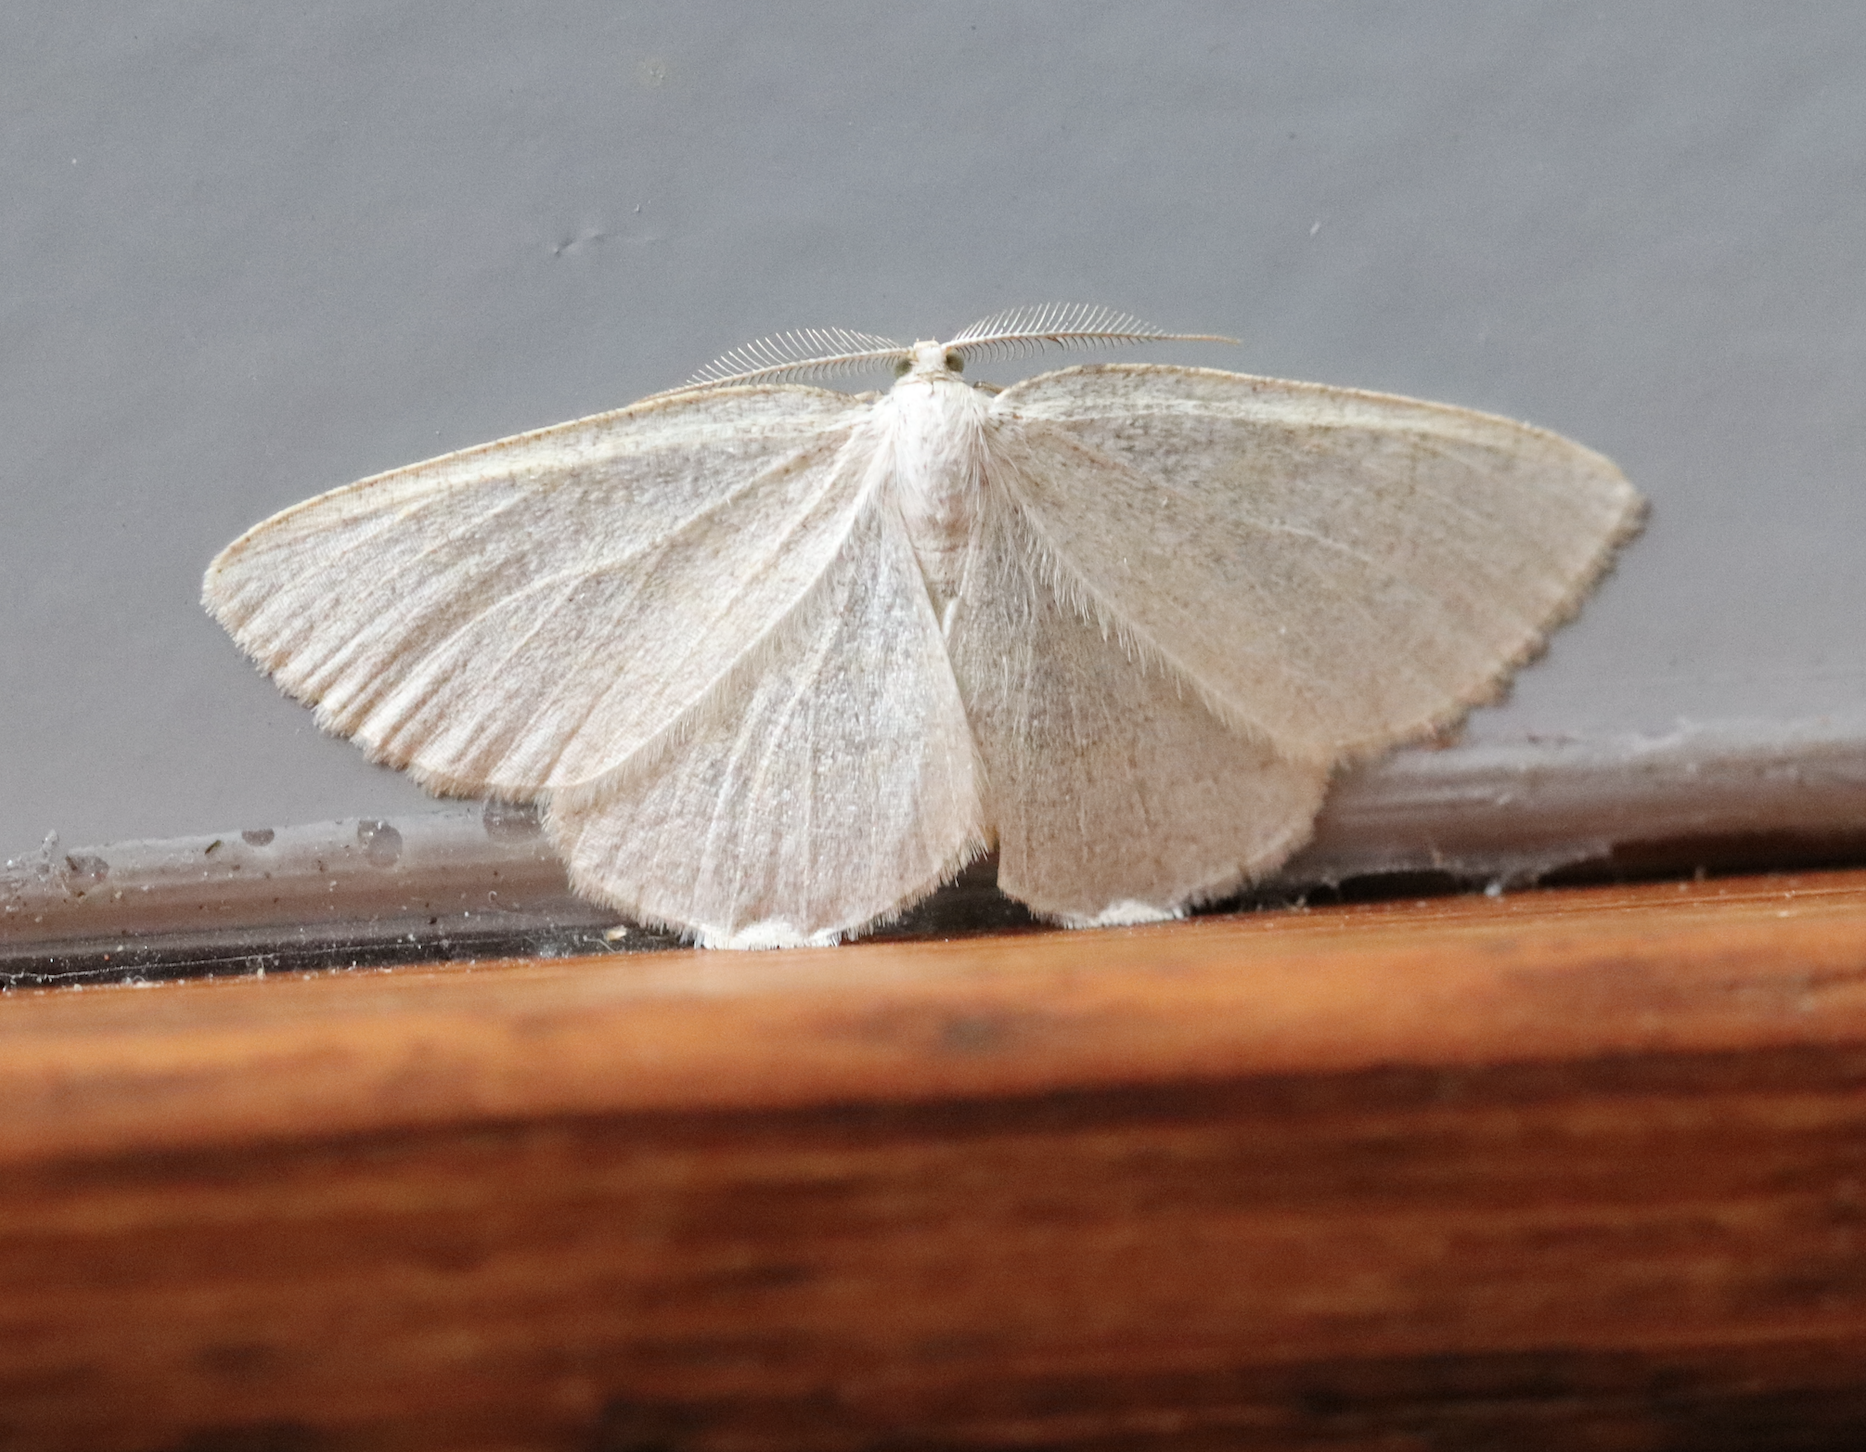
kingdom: Animalia
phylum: Arthropoda
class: Insecta
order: Lepidoptera
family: Geometridae
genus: Cabera
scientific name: Cabera exanthemata
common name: Common wave
